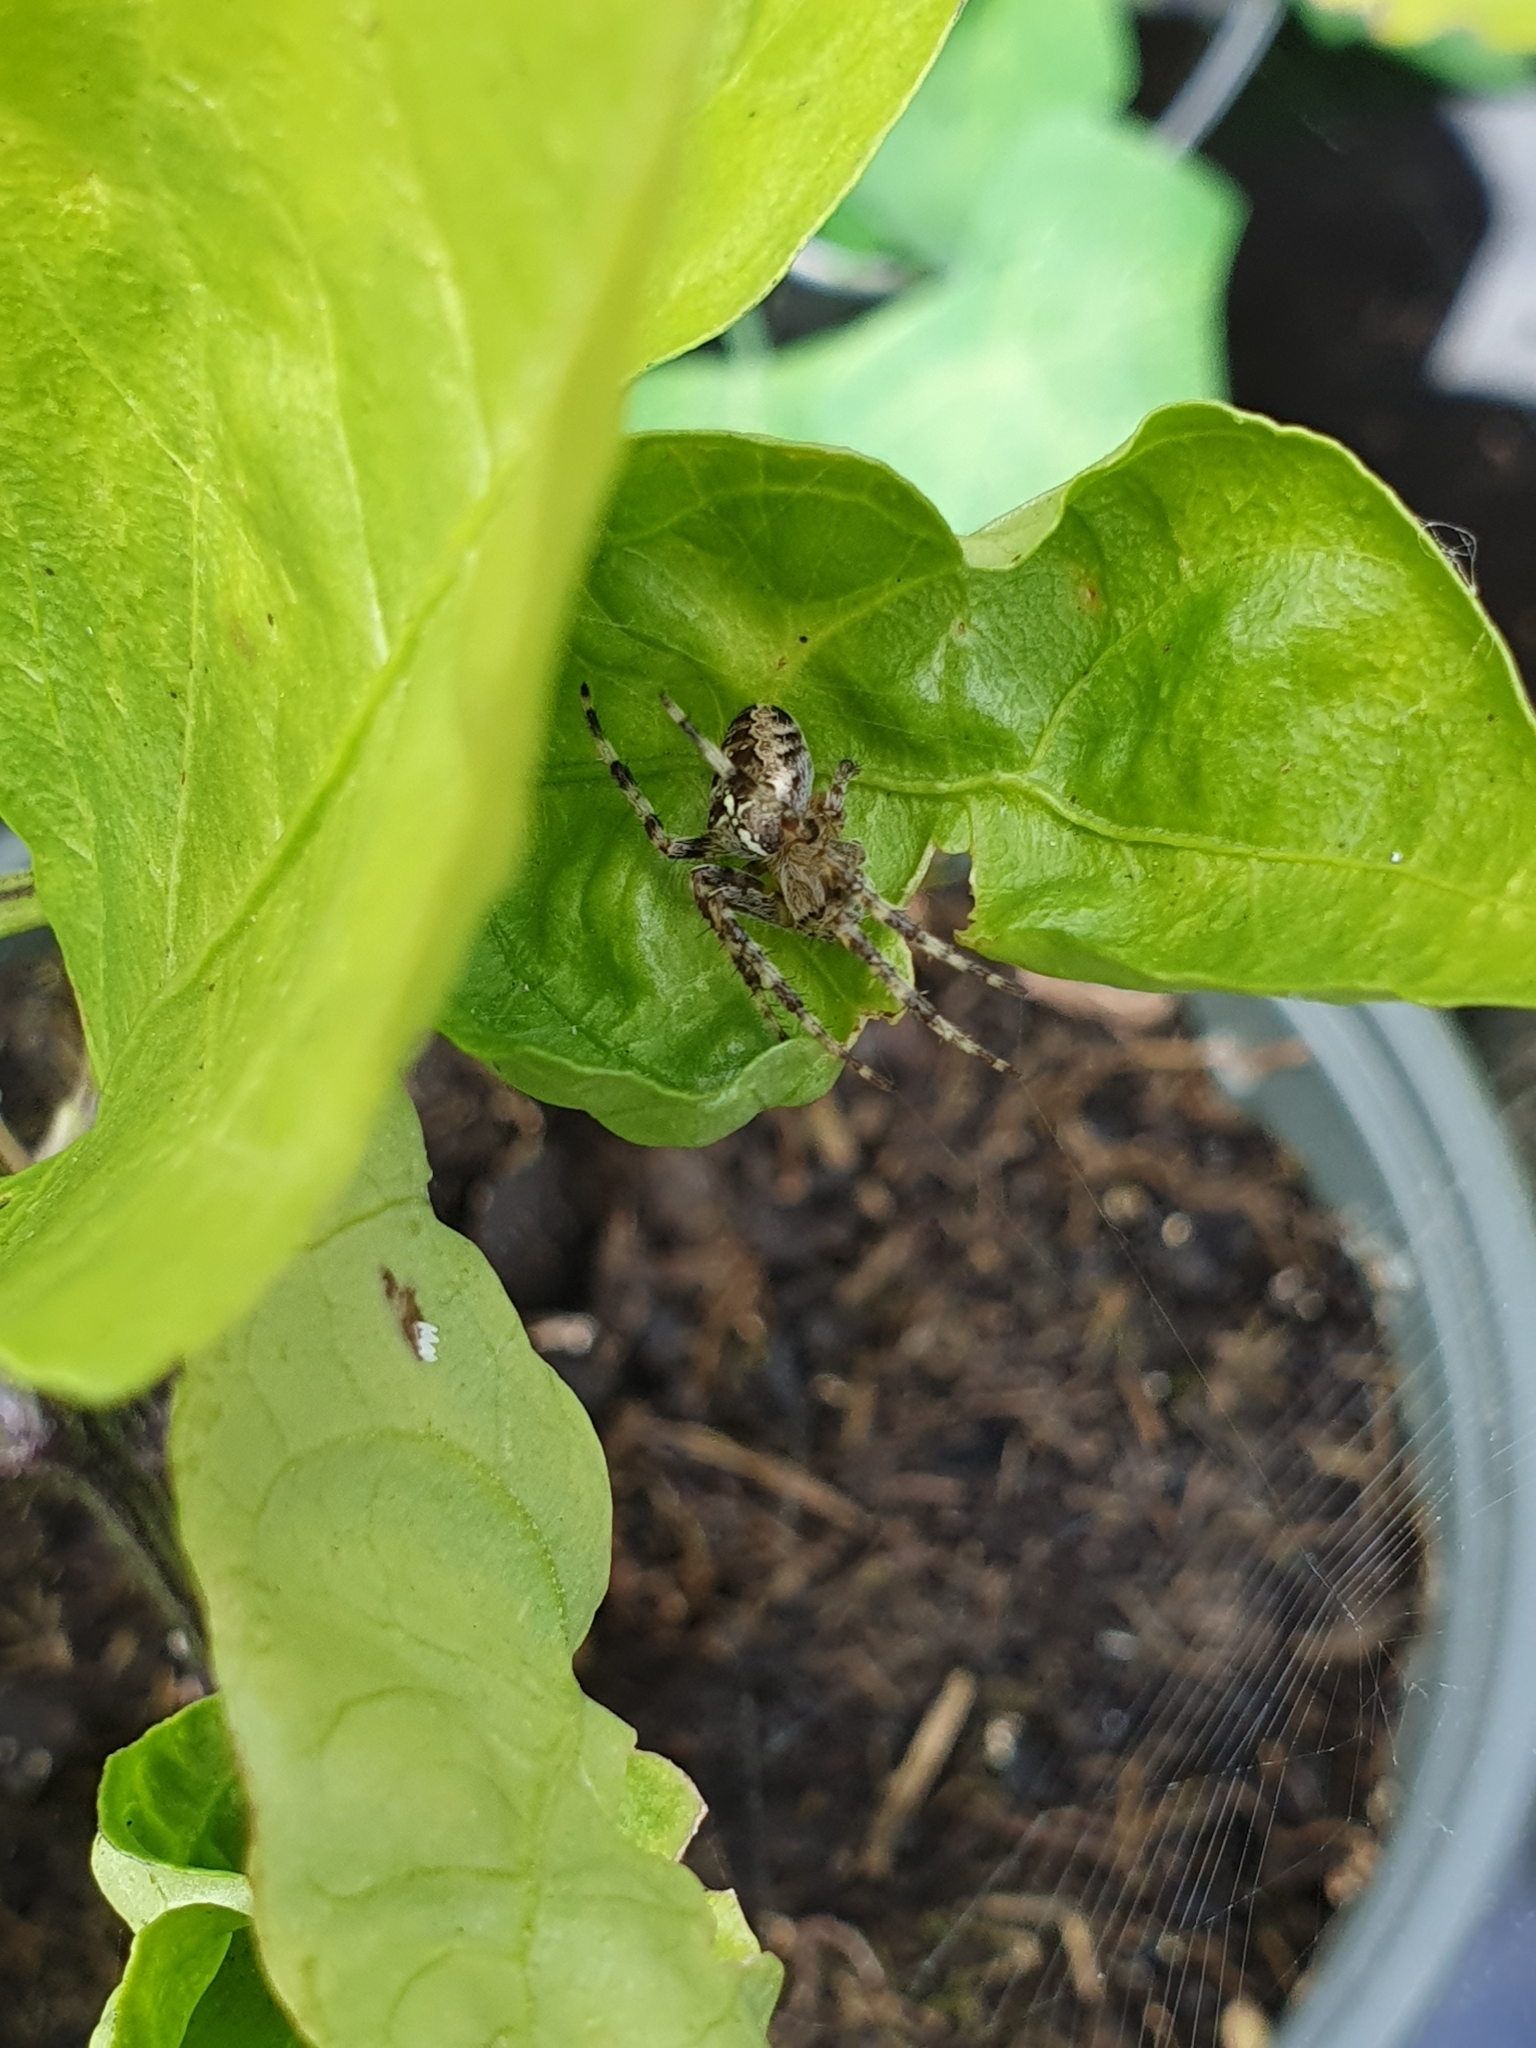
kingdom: Animalia
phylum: Arthropoda
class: Arachnida
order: Araneae
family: Araneidae
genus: Araneus
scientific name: Araneus diadematus
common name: Cross orbweaver
